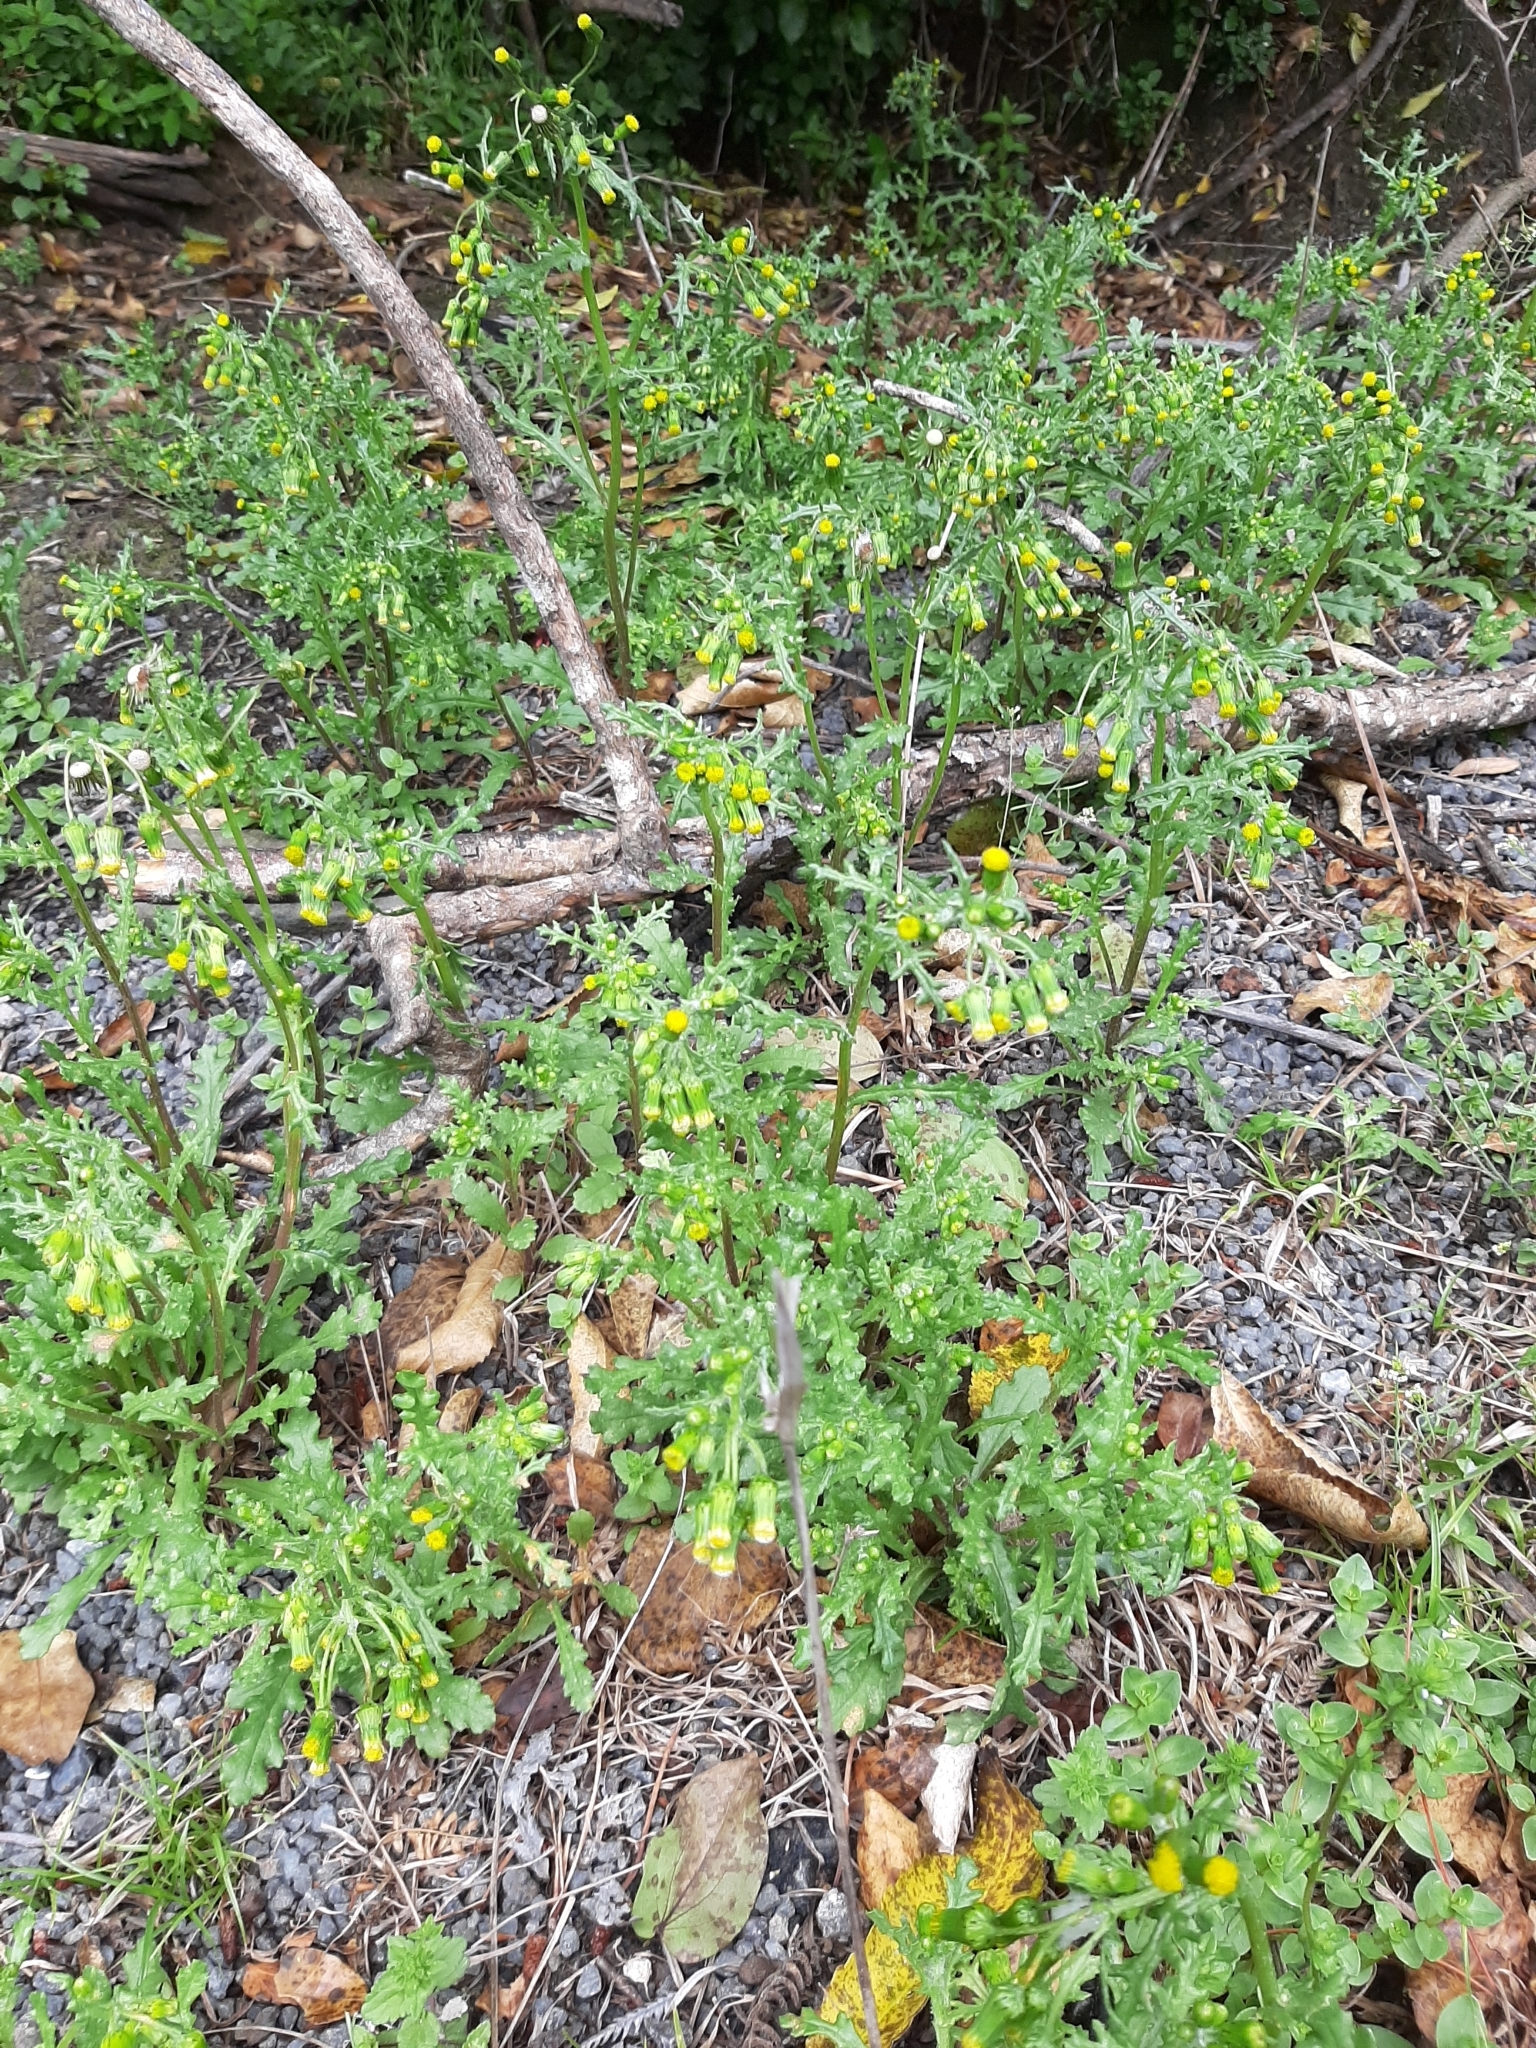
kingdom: Plantae
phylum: Tracheophyta
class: Magnoliopsida
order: Asterales
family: Asteraceae
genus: Senecio
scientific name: Senecio vulgaris
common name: Old-man-in-the-spring
